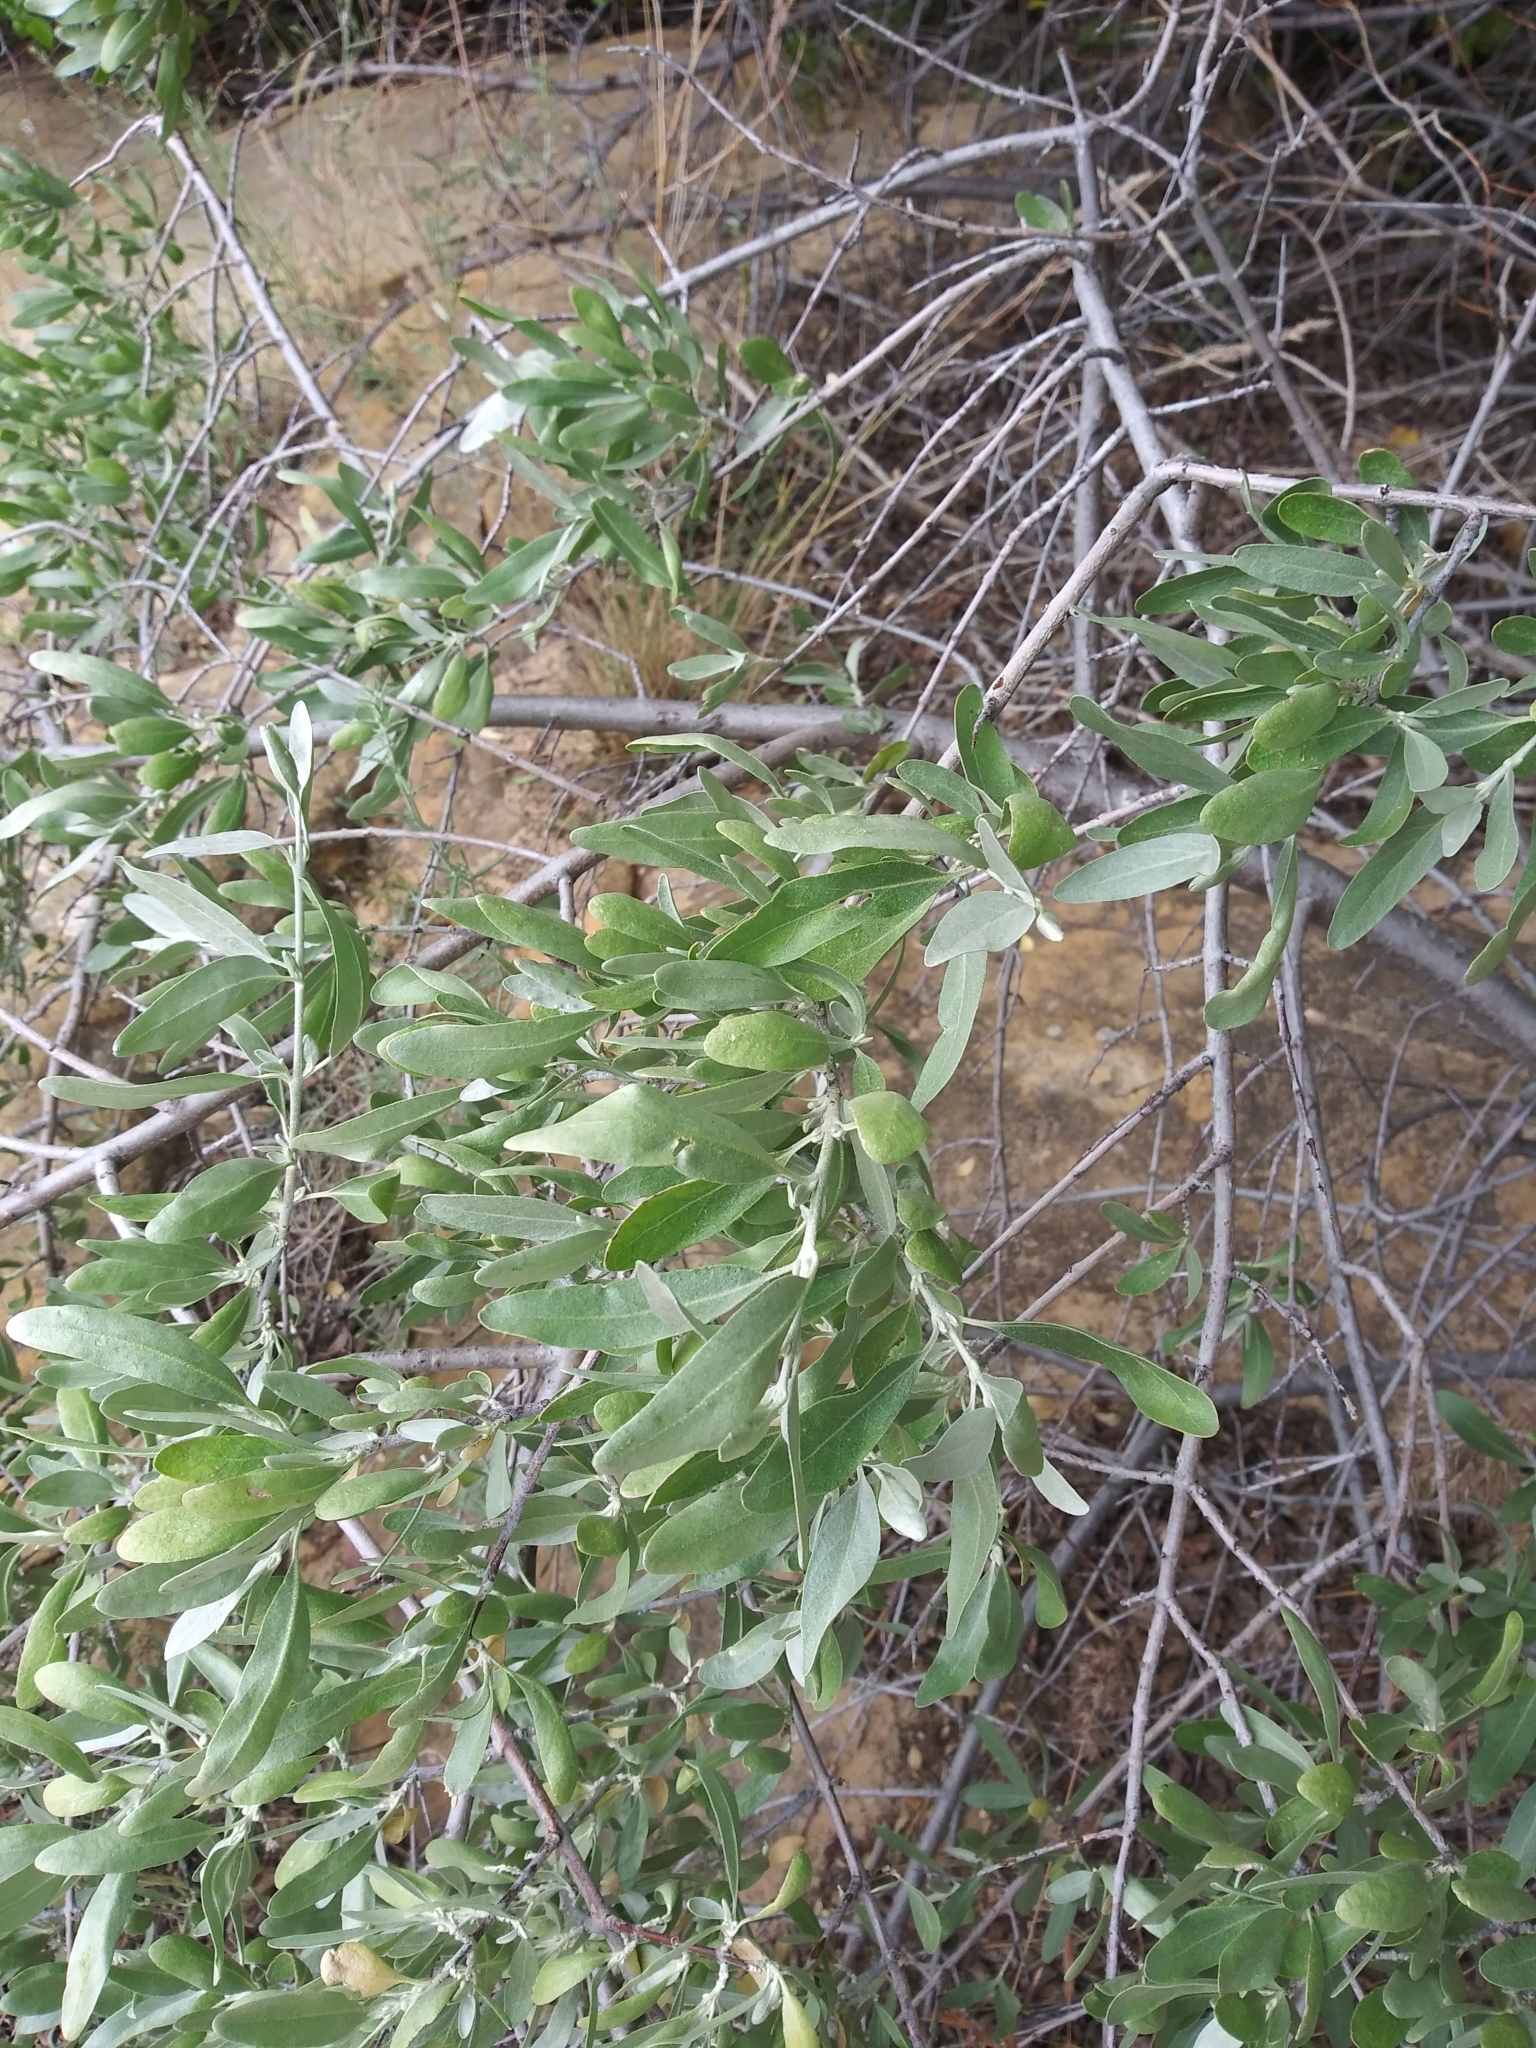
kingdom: Plantae
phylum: Tracheophyta
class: Magnoliopsida
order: Rosales
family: Elaeagnaceae
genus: Elaeagnus
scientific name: Elaeagnus angustifolia
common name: Russian olive
